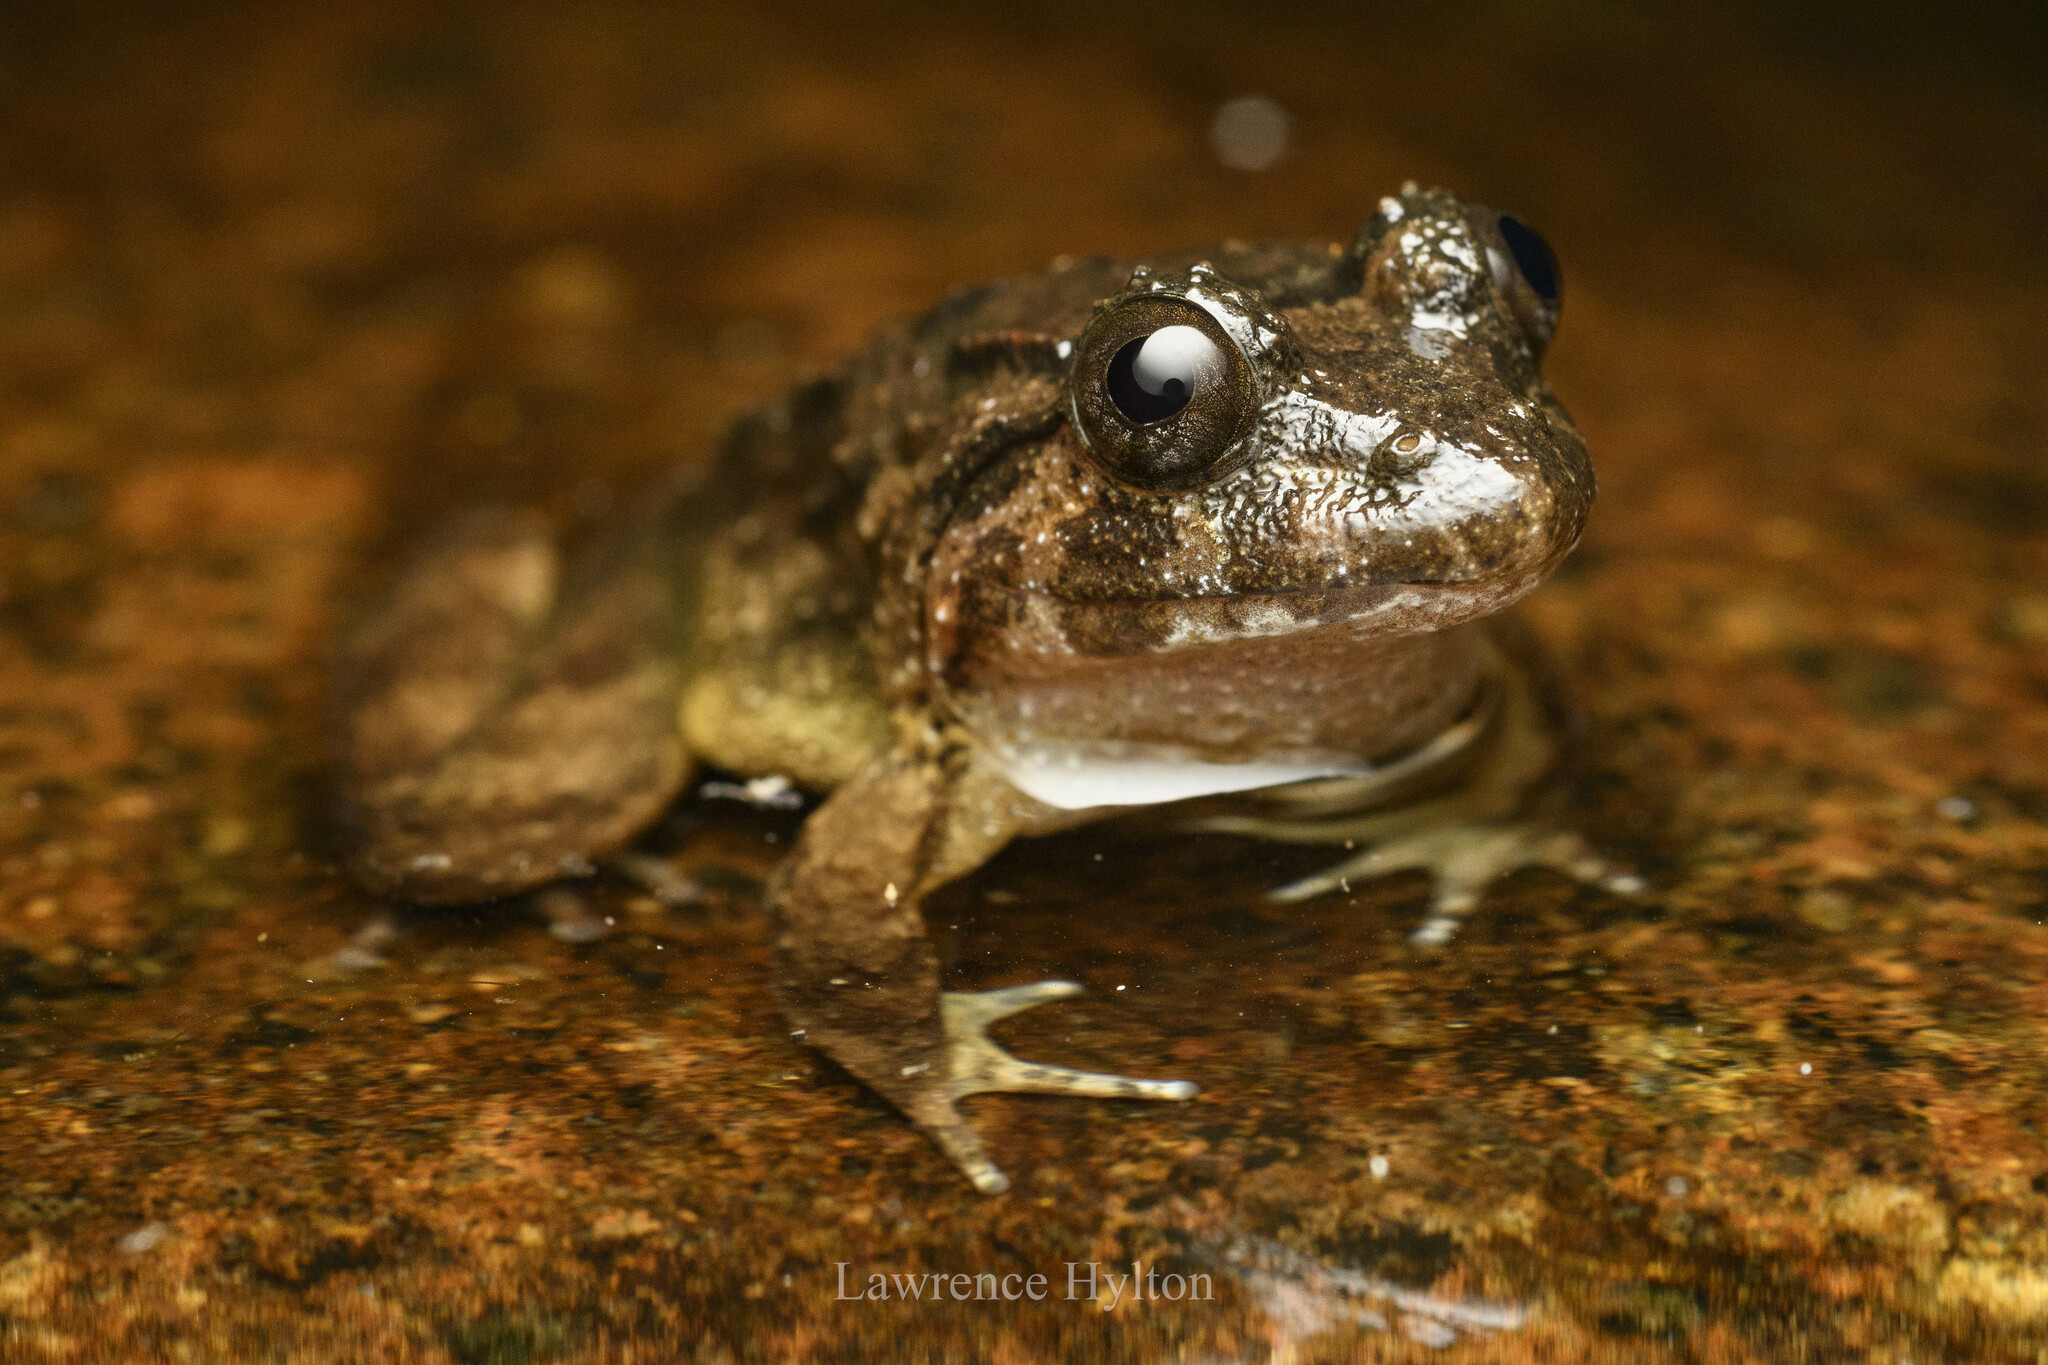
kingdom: Animalia
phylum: Chordata
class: Amphibia
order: Anura
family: Dicroglossidae
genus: Limnonectes
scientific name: Limnonectes fujianensis
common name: Fujian large-headed frog
